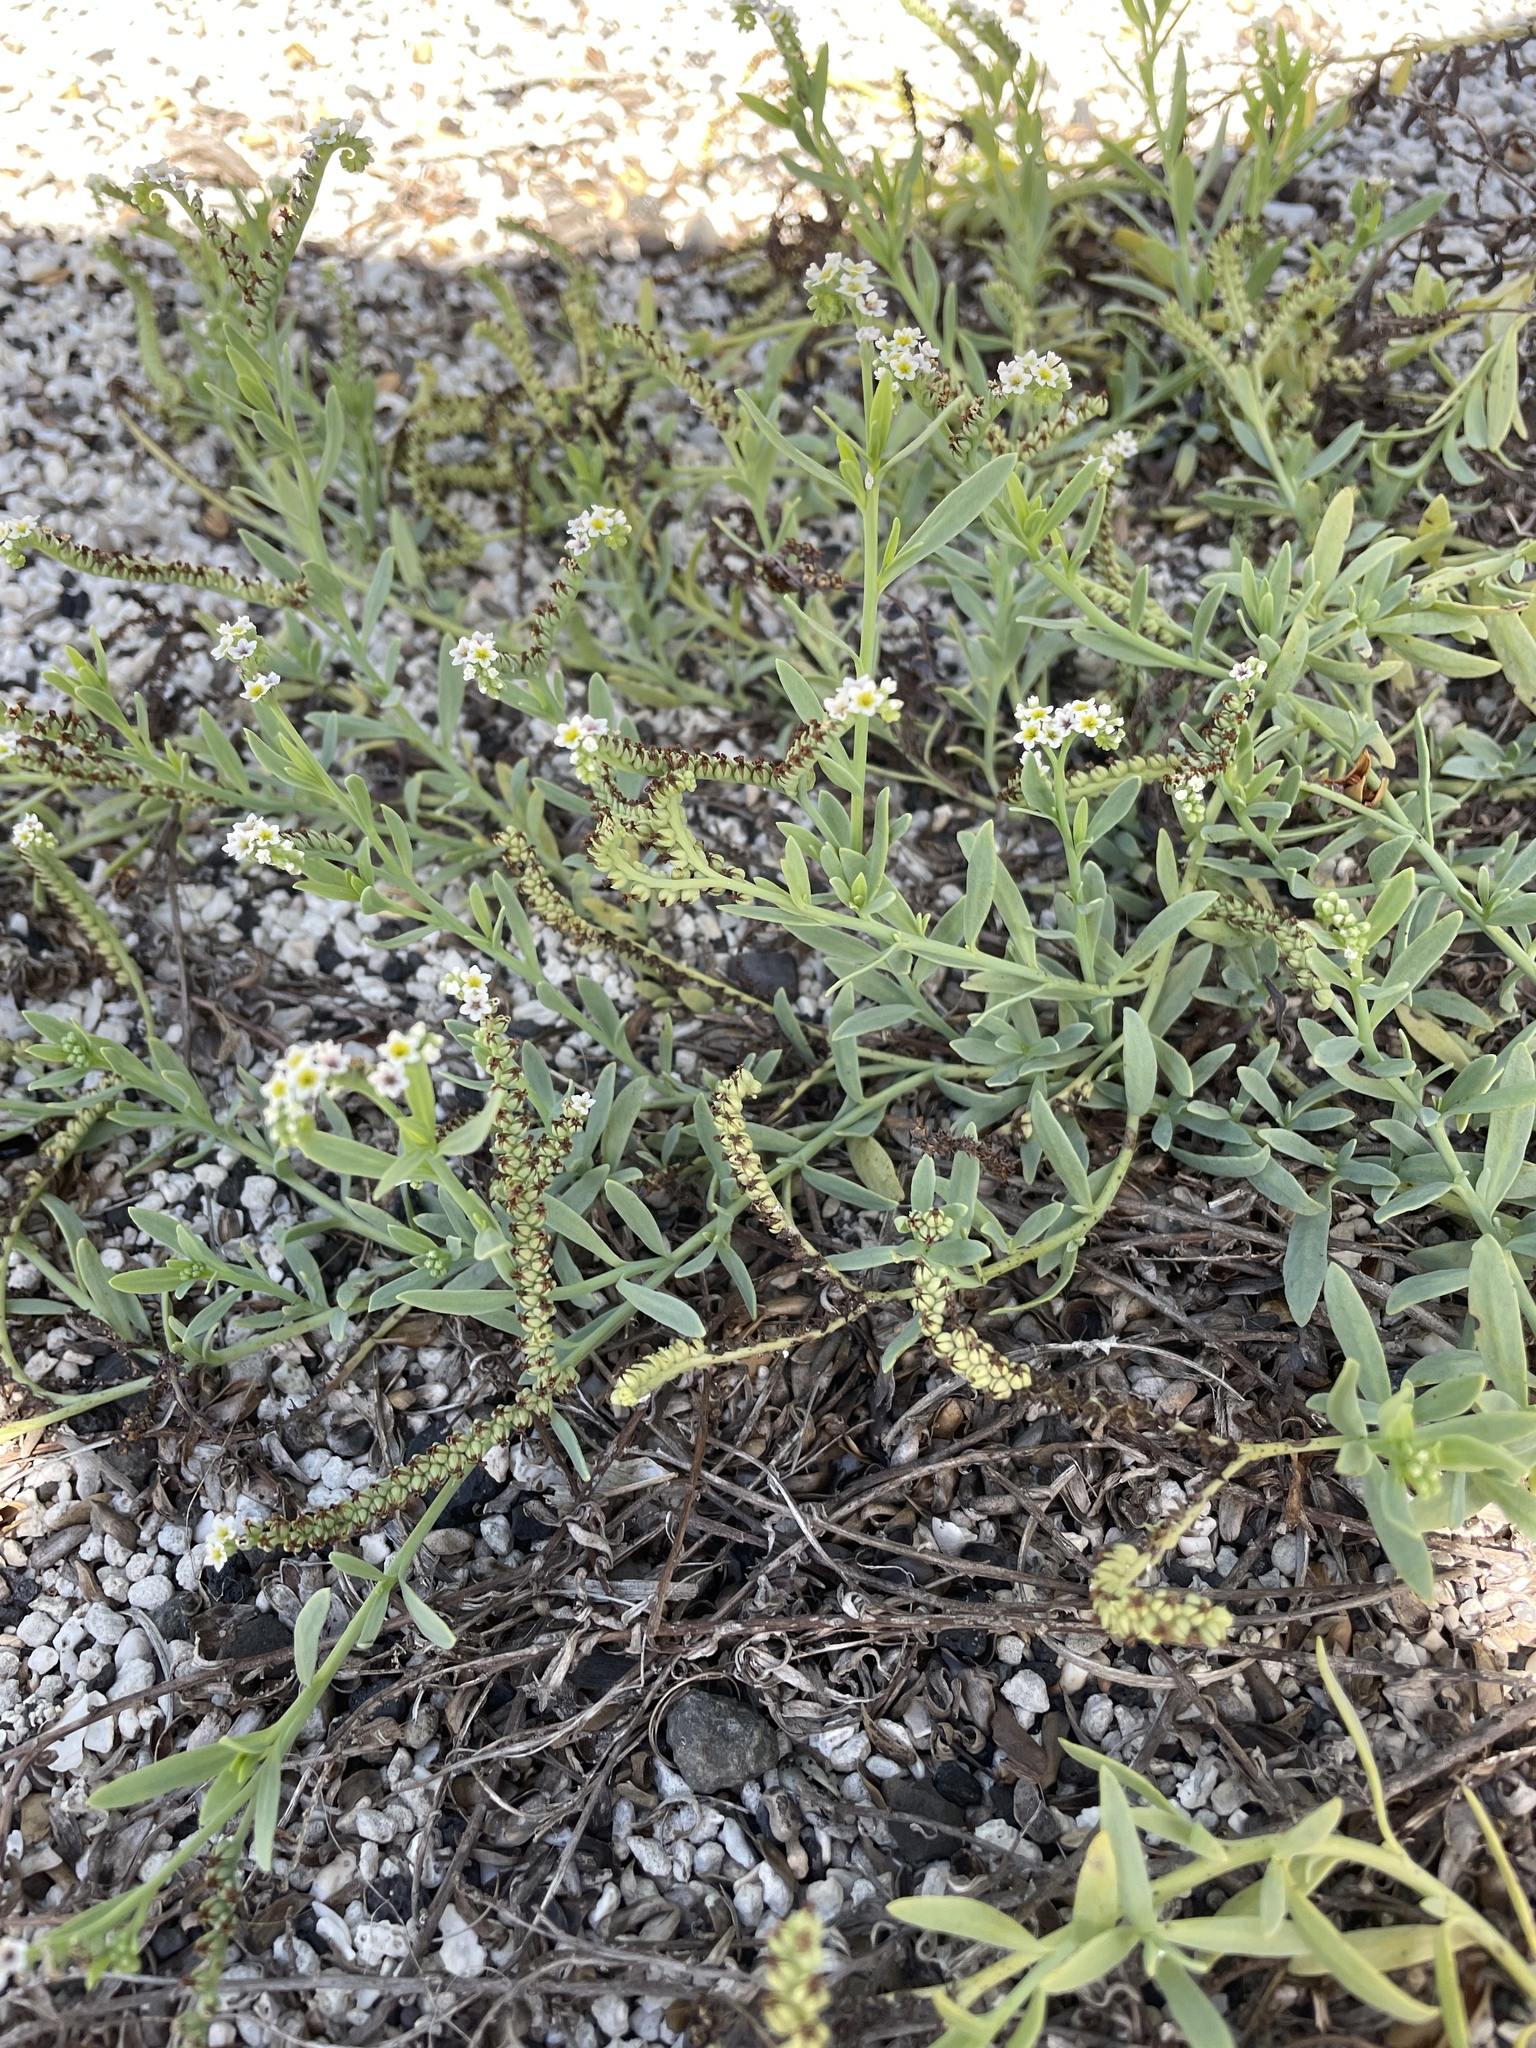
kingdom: Plantae
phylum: Tracheophyta
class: Magnoliopsida
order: Boraginales
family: Heliotropiaceae
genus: Heliotropium
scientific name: Heliotropium curassavicum
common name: Seaside heliotrope
